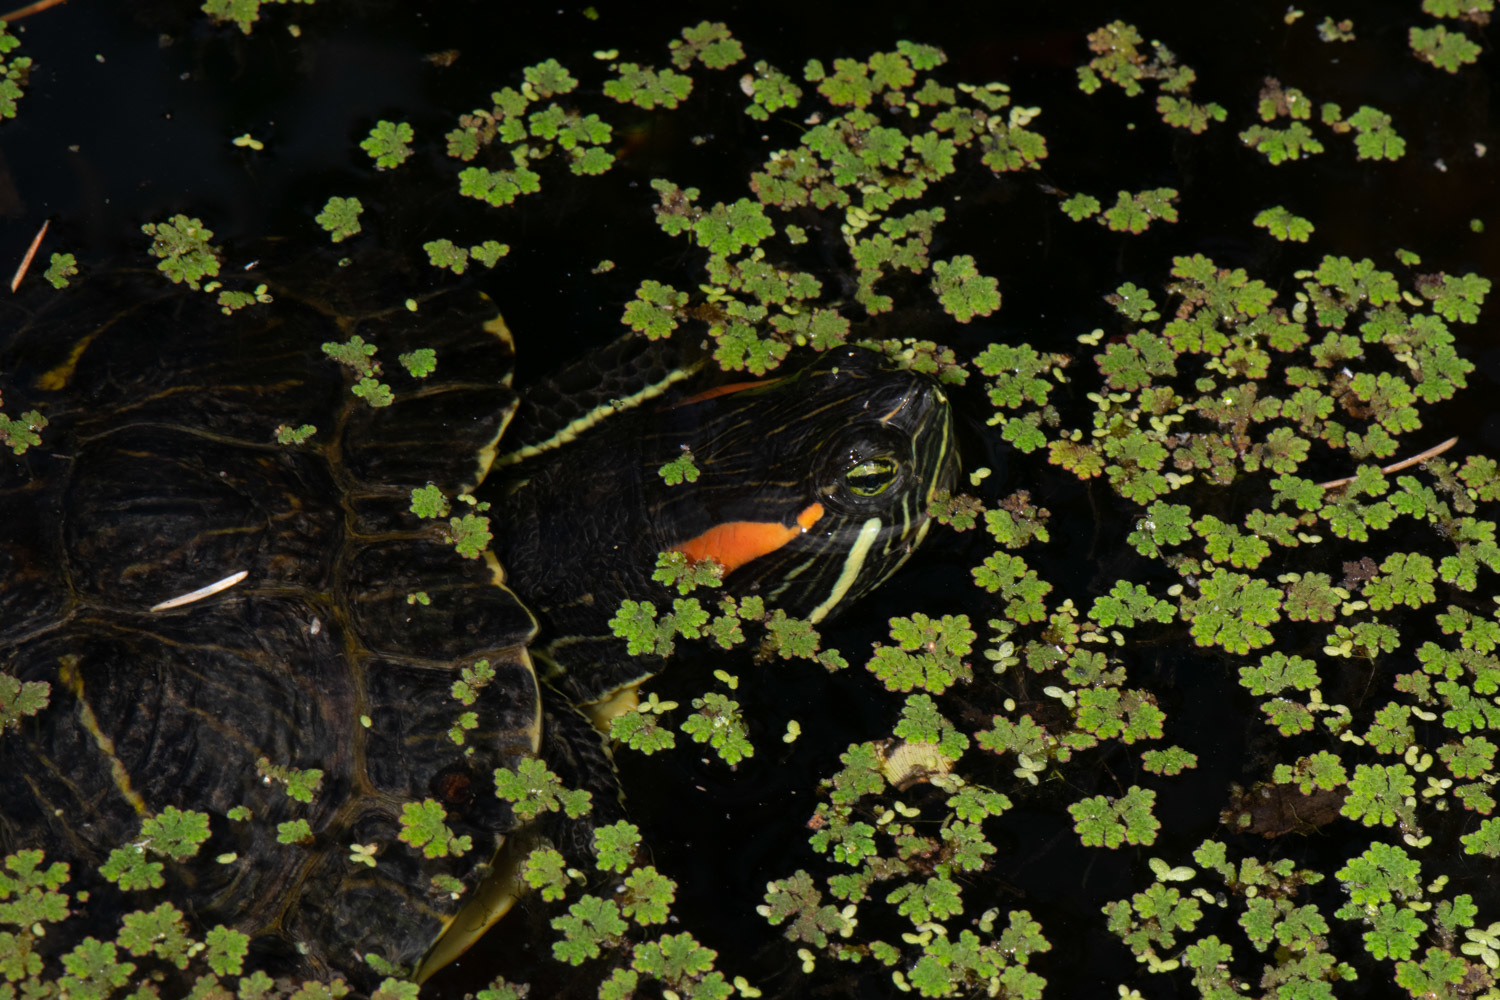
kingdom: Animalia
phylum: Chordata
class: Testudines
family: Emydidae
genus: Trachemys
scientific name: Trachemys scripta
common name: Slider
